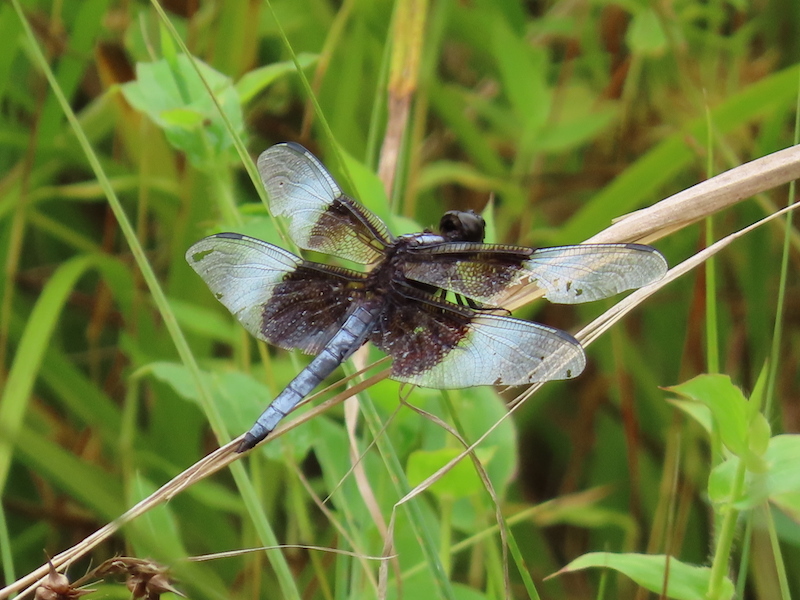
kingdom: Animalia
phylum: Arthropoda
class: Insecta
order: Odonata
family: Libellulidae
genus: Libellula
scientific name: Libellula luctuosa
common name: Widow skimmer
